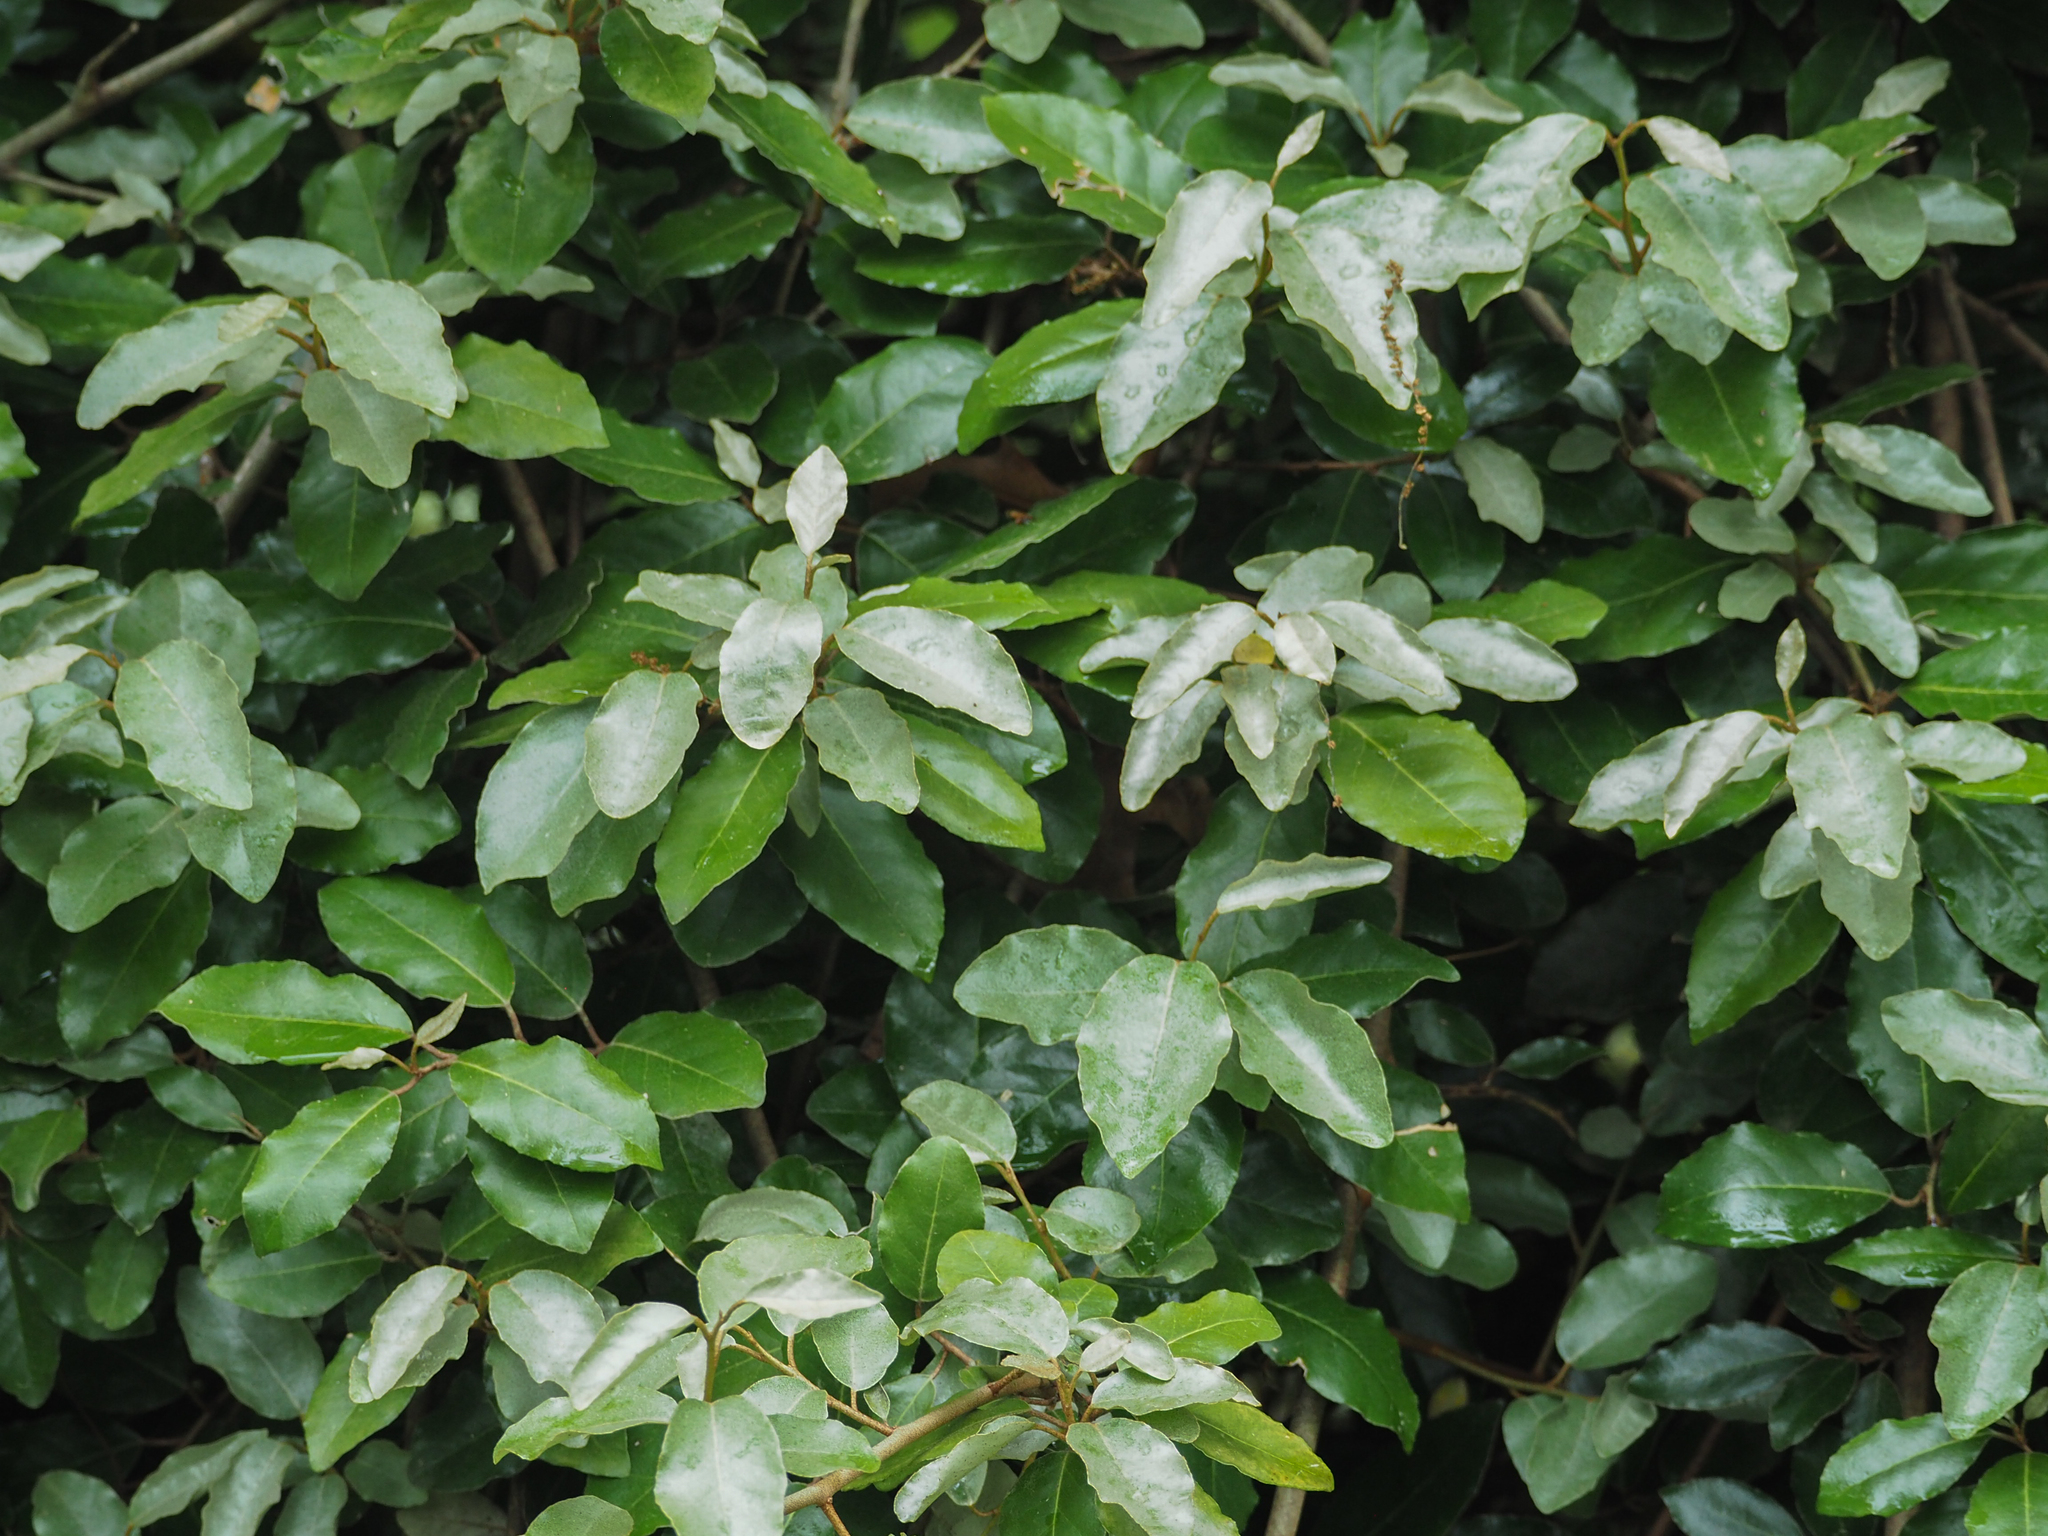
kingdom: Plantae
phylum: Tracheophyta
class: Magnoliopsida
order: Rosales
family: Elaeagnaceae
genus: Elaeagnus
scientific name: Elaeagnus pungens
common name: Spiny oleaster
